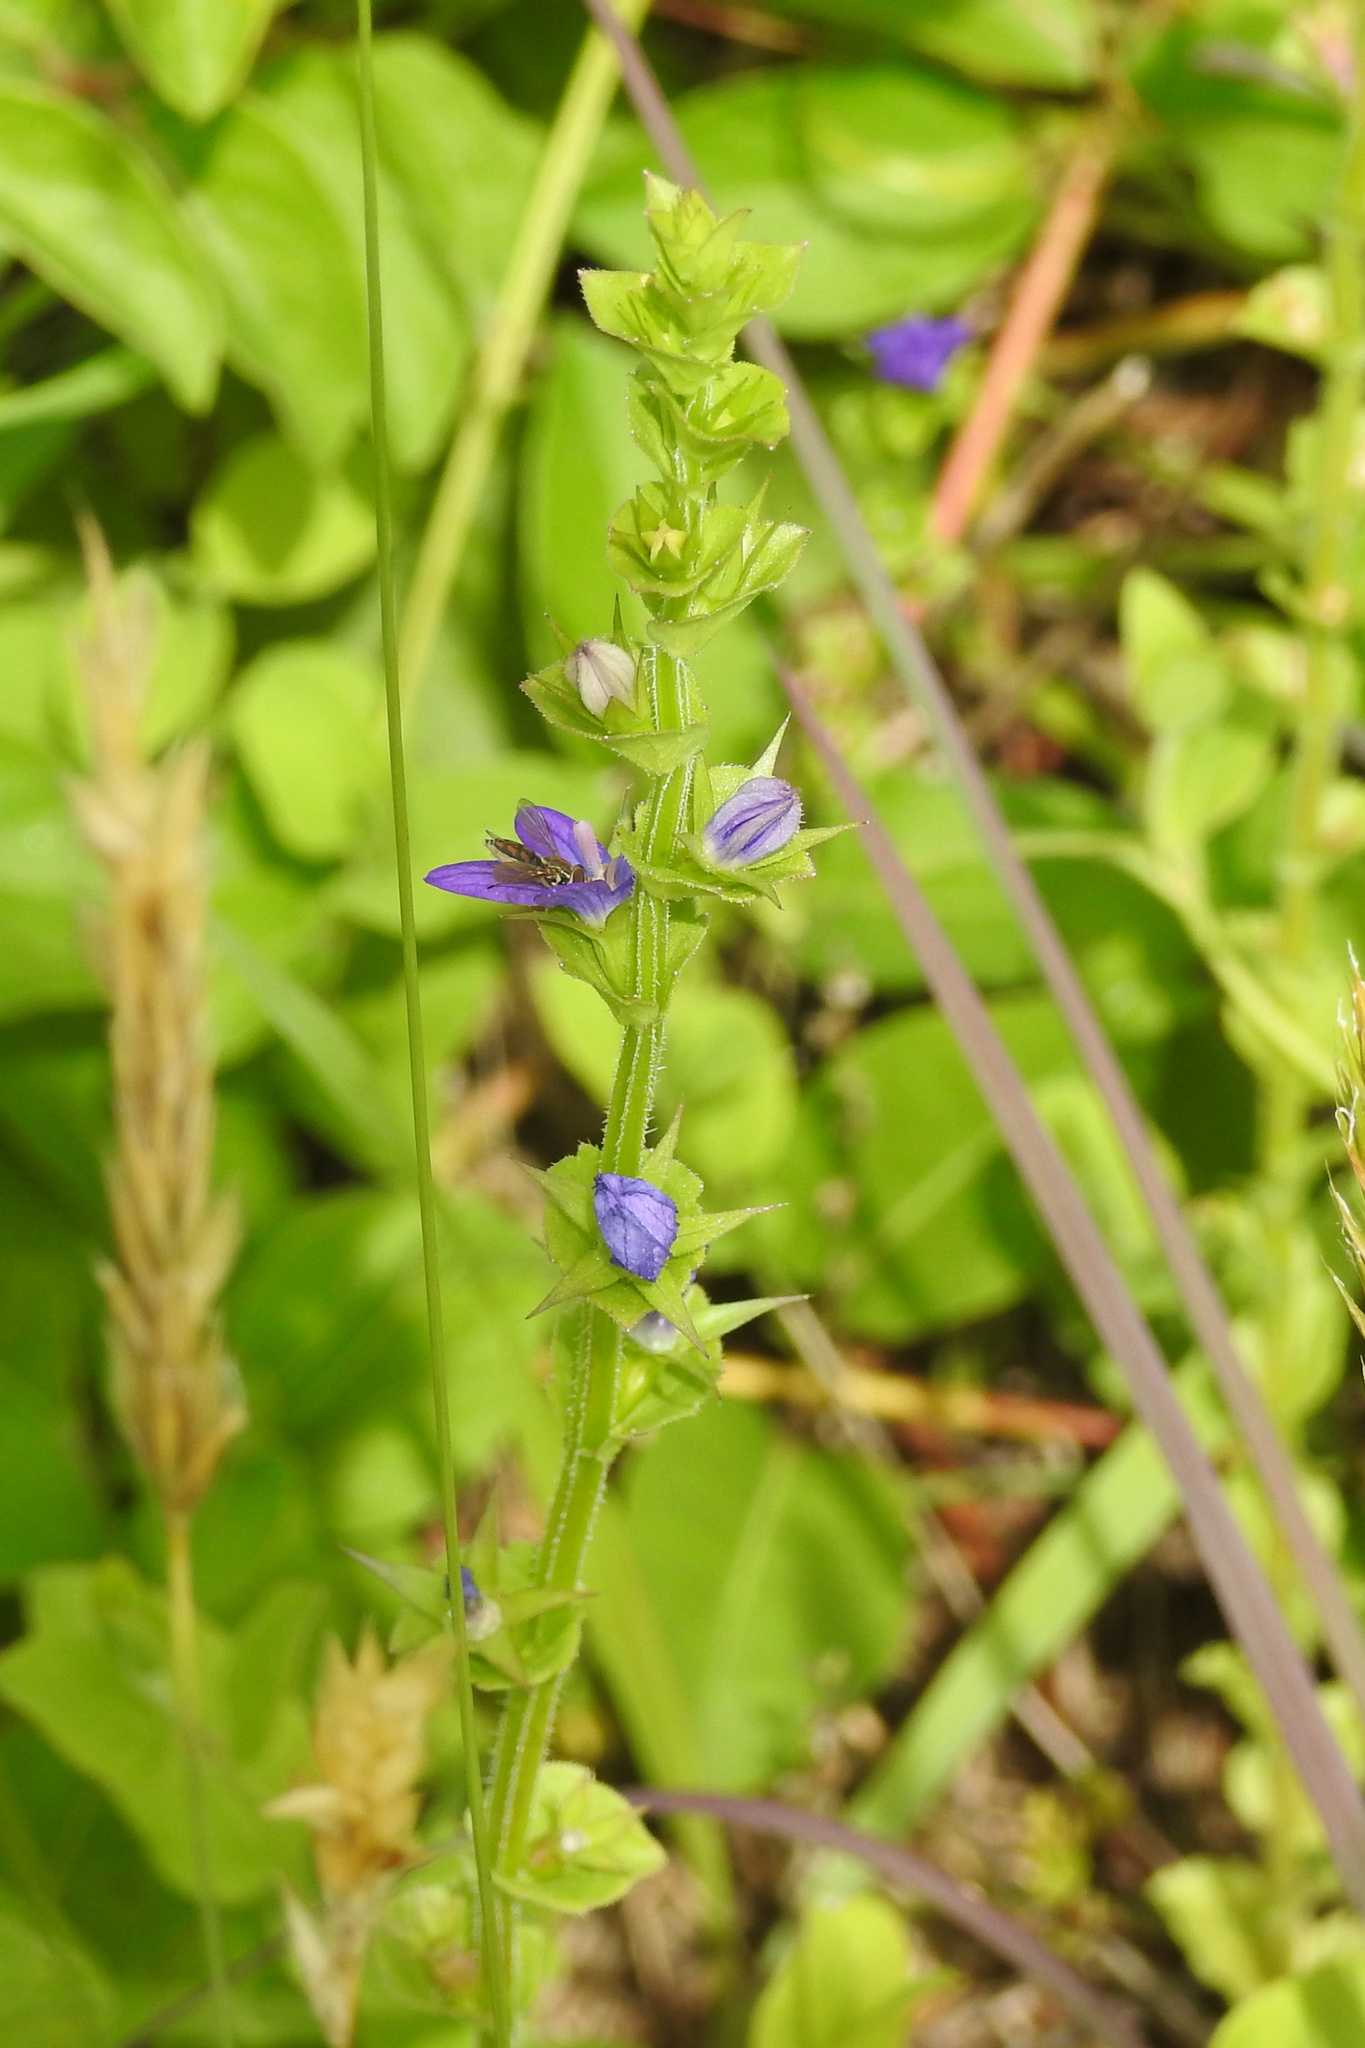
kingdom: Plantae
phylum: Tracheophyta
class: Magnoliopsida
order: Asterales
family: Campanulaceae
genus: Triodanis
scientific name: Triodanis perfoliata
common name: Clasping venus' looking-glass
